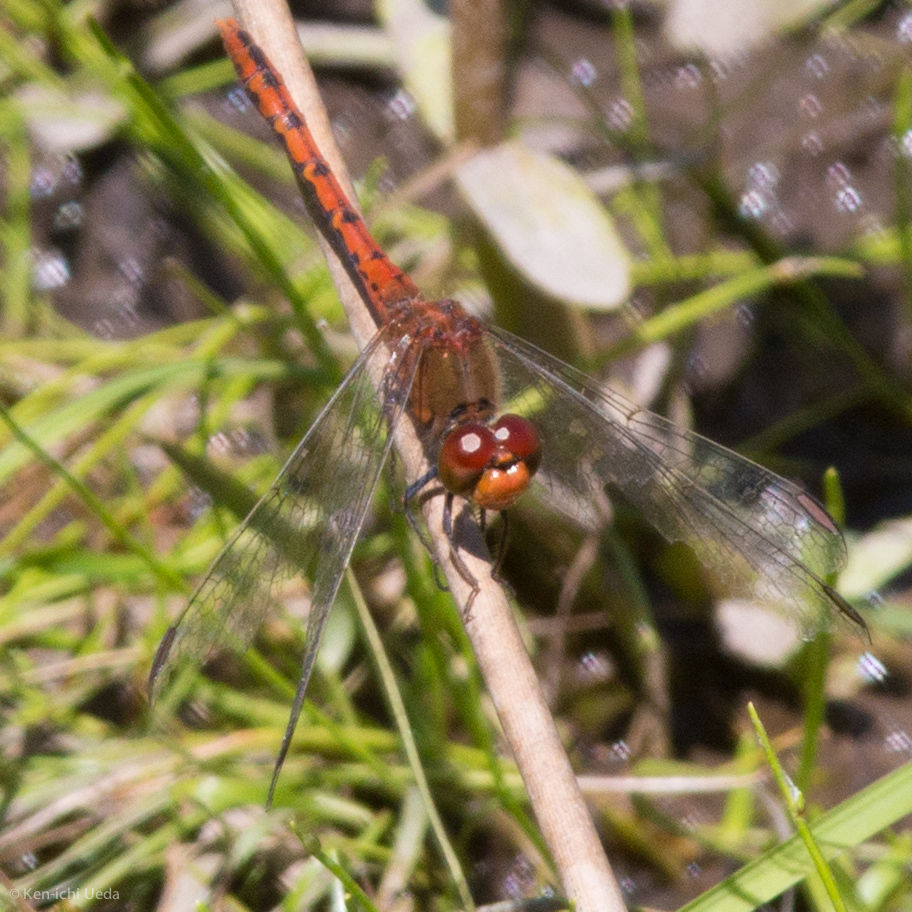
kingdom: Animalia
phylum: Arthropoda
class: Insecta
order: Odonata
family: Libellulidae
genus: Diplacodes
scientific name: Diplacodes bipunctata
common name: Red percher dragonfly
